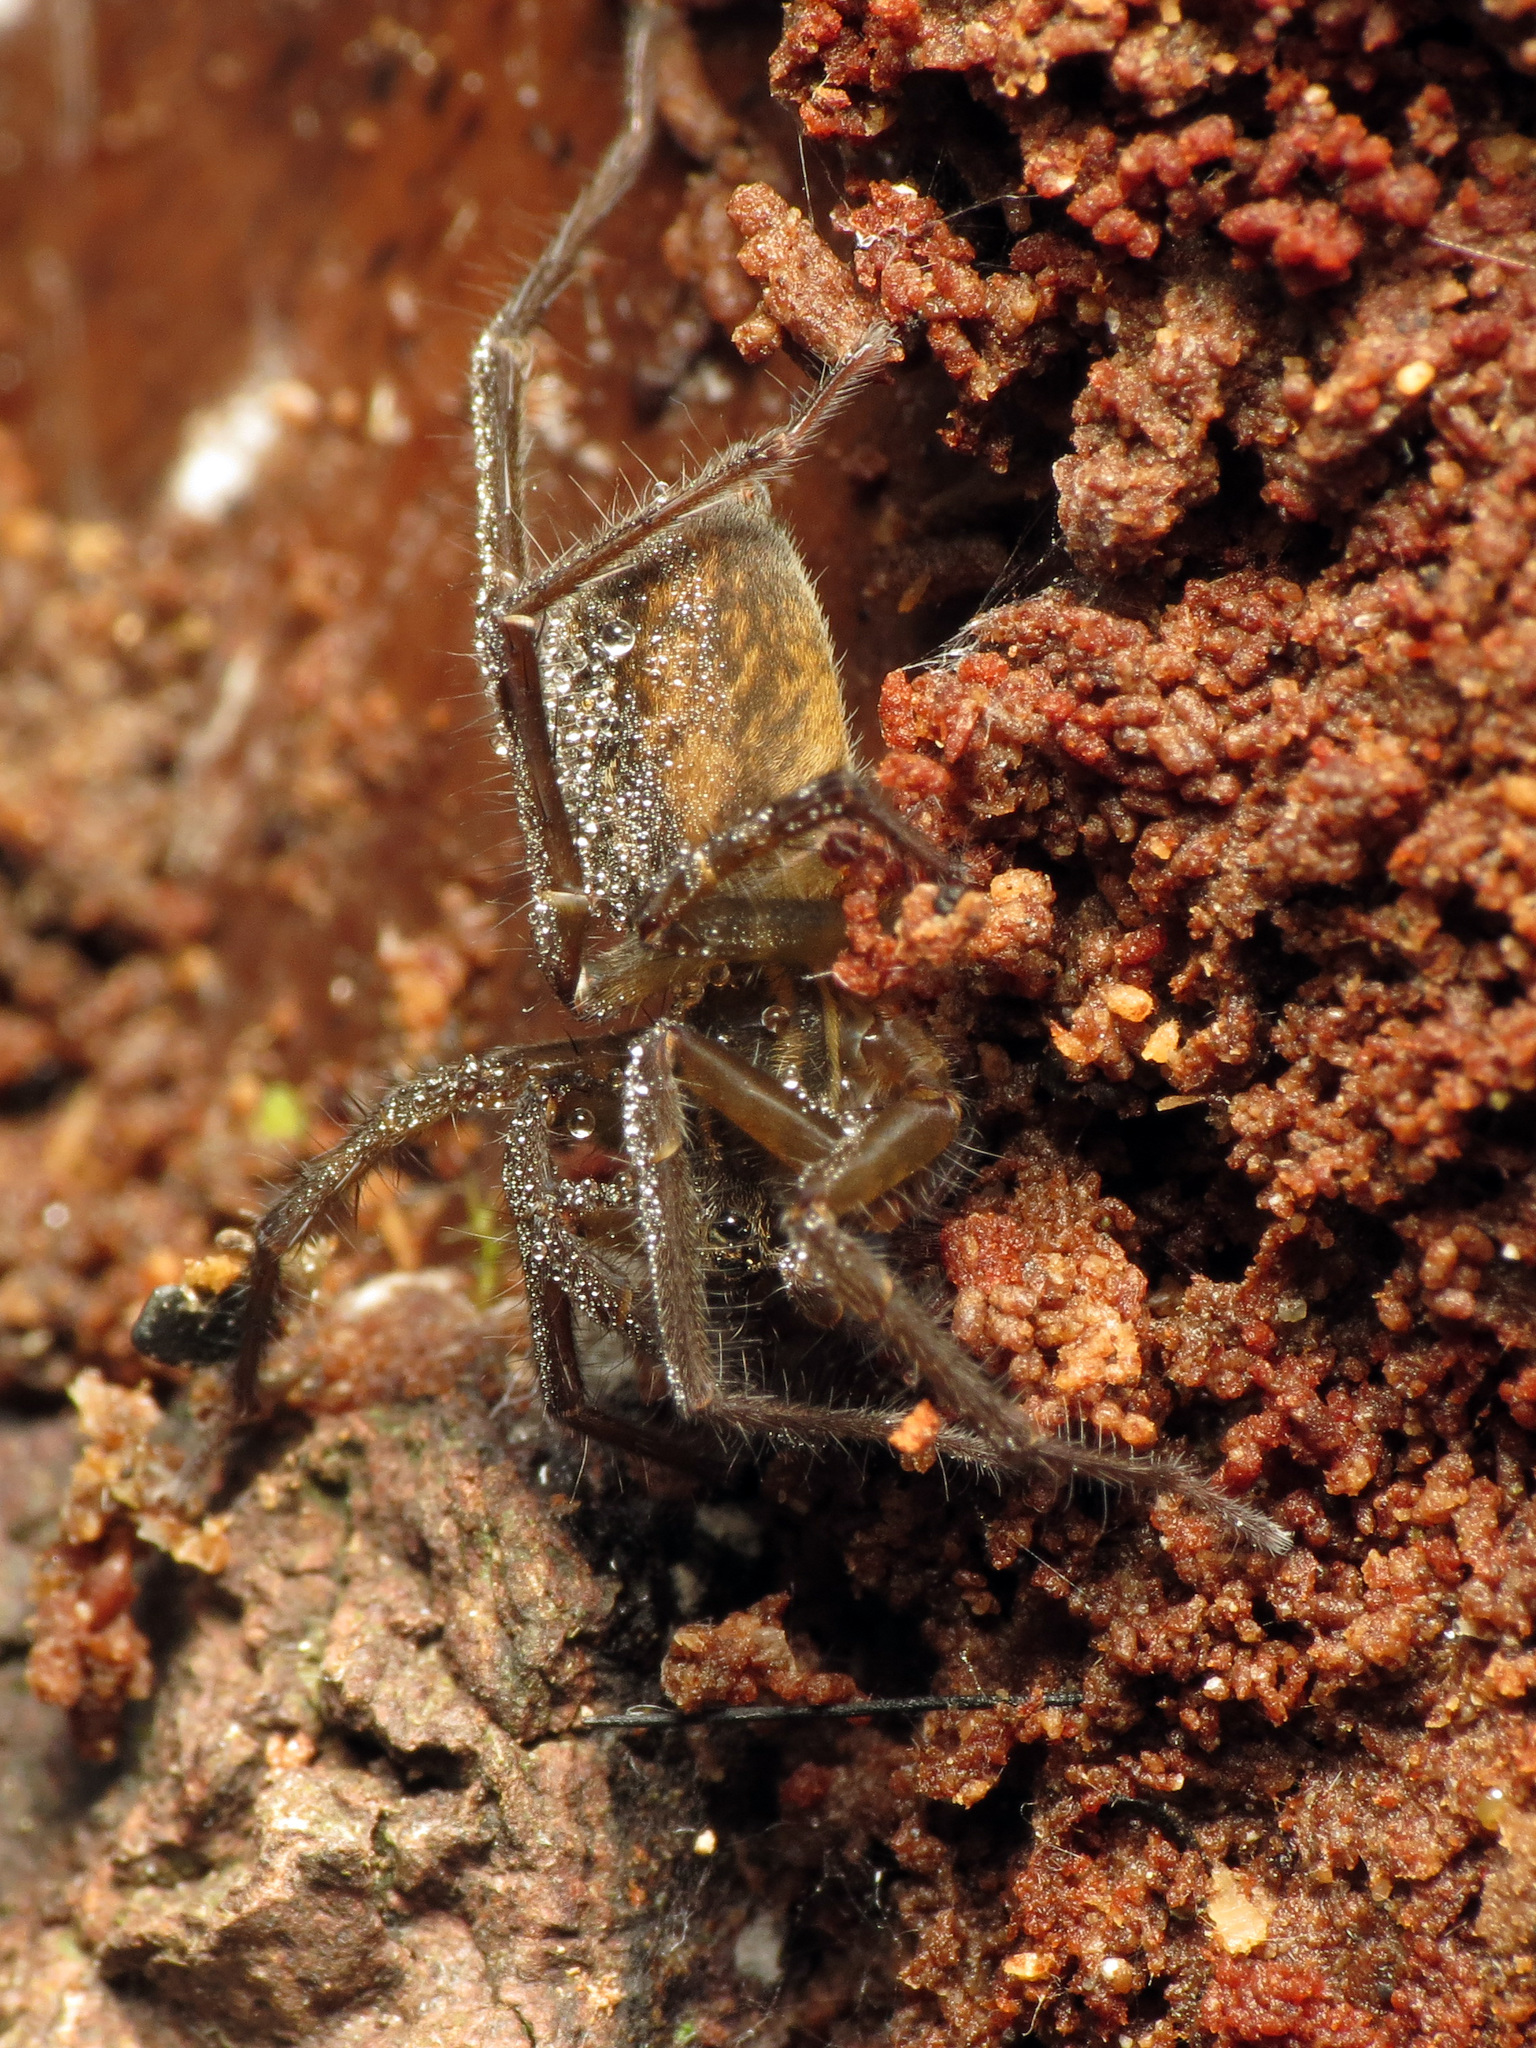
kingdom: Animalia
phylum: Arthropoda
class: Arachnida
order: Araneae
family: Lycosidae
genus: Allotrochosina
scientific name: Allotrochosina schauinslandi
